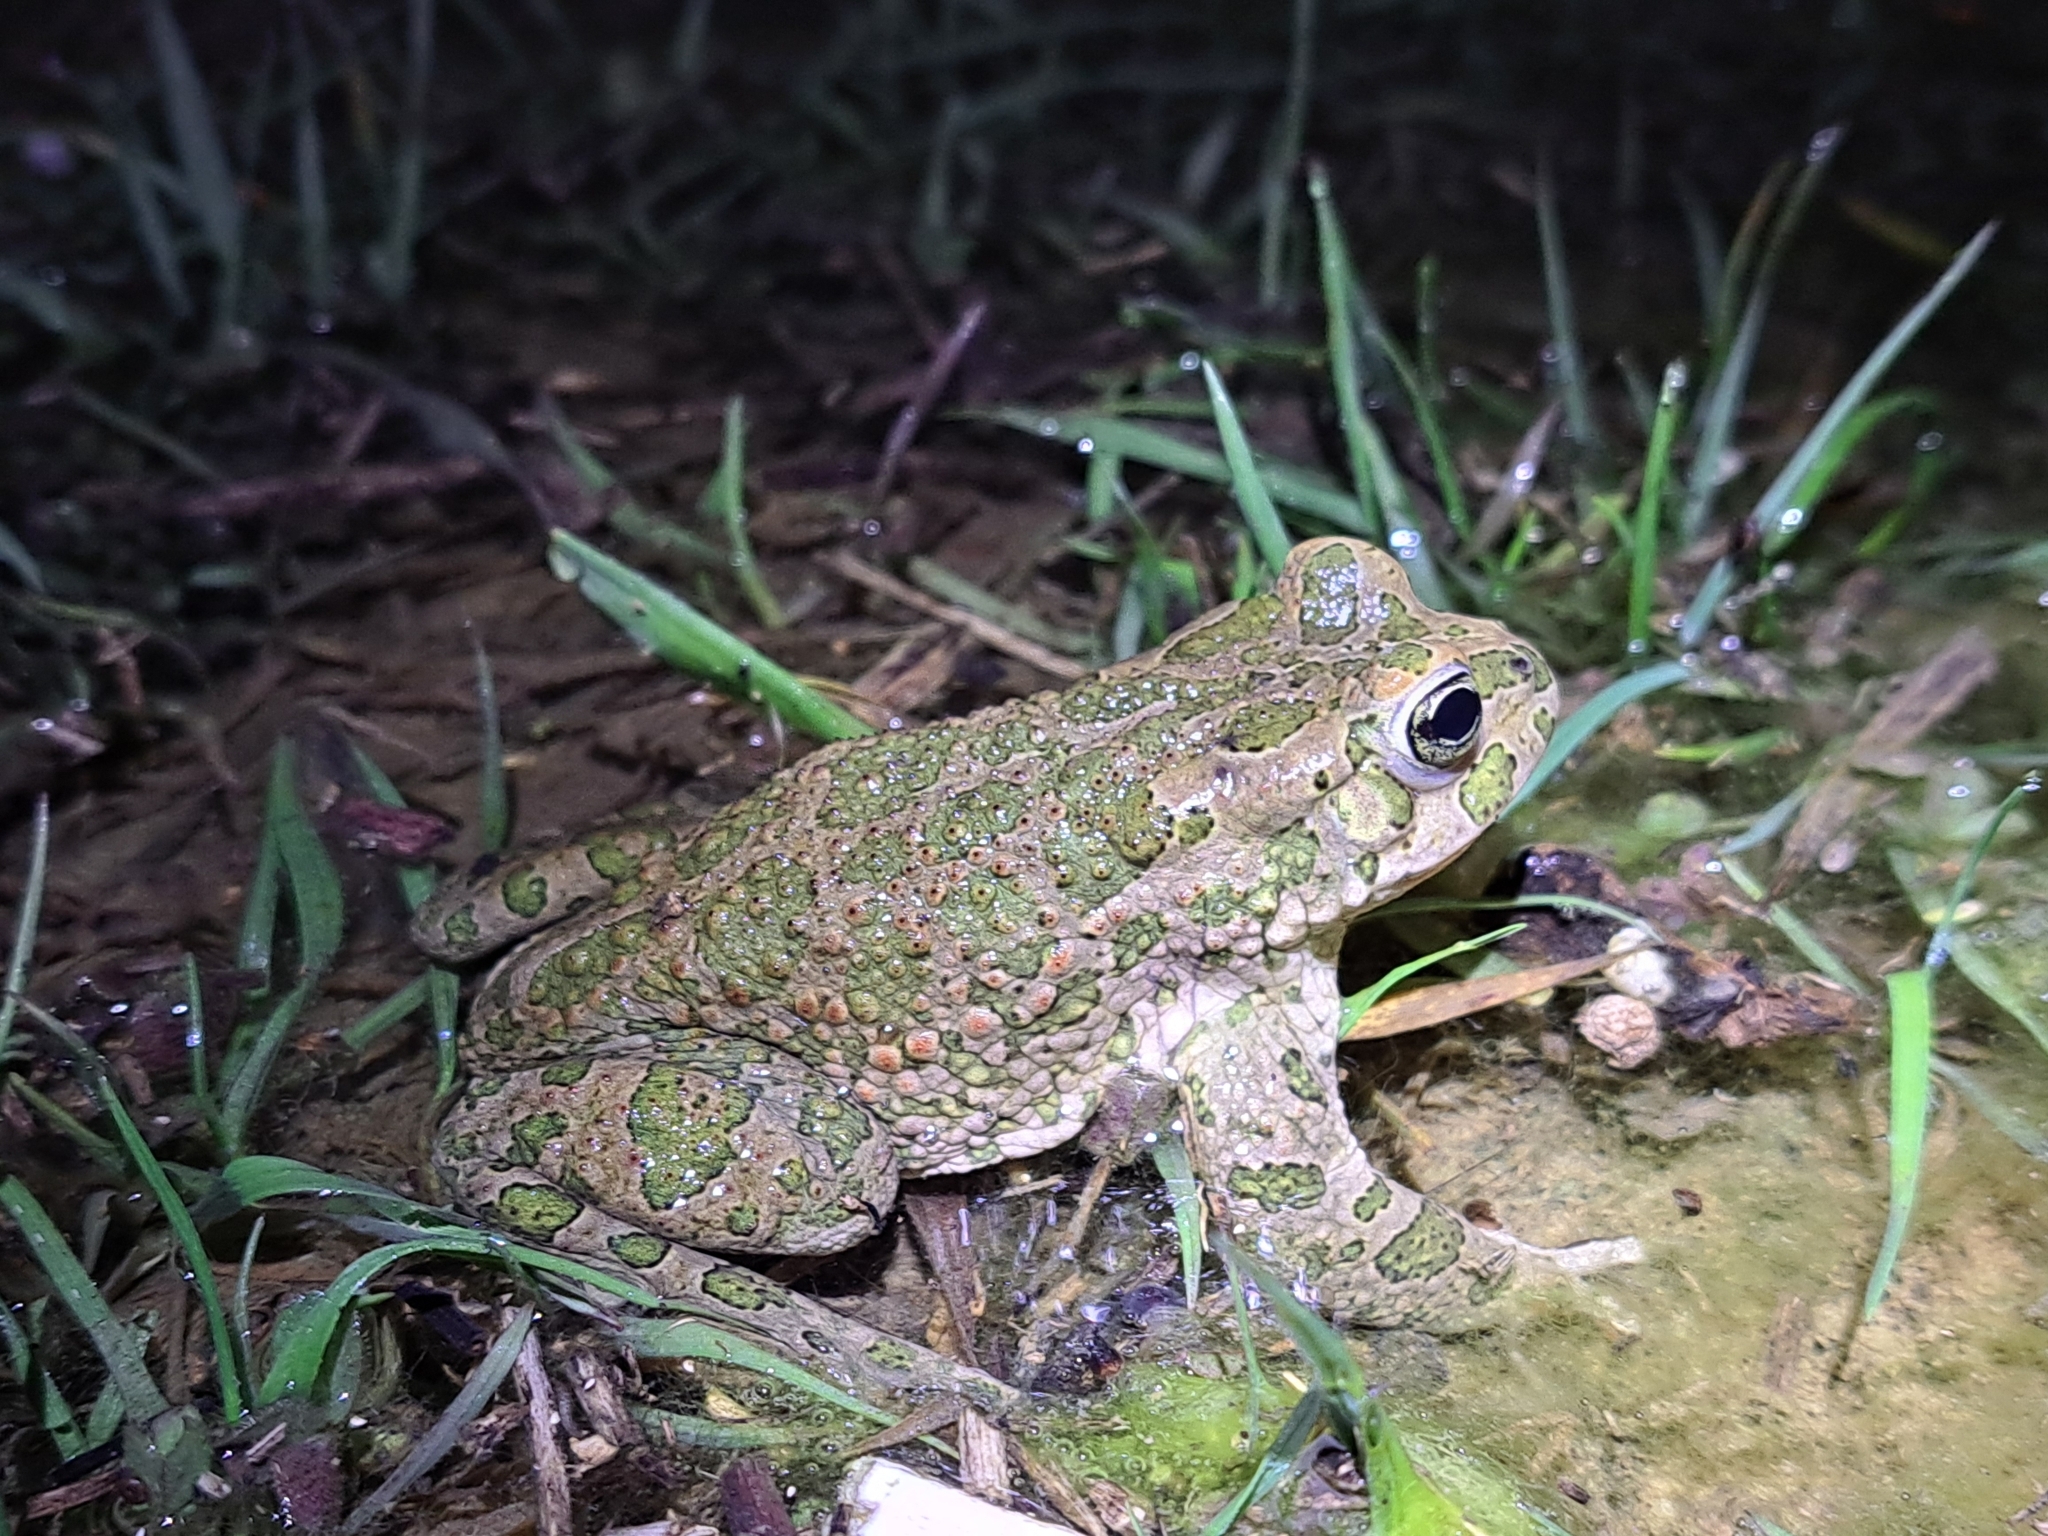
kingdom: Animalia
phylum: Chordata
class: Amphibia
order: Anura
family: Bufonidae
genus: Bufotes
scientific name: Bufotes viridis
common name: European green toad
